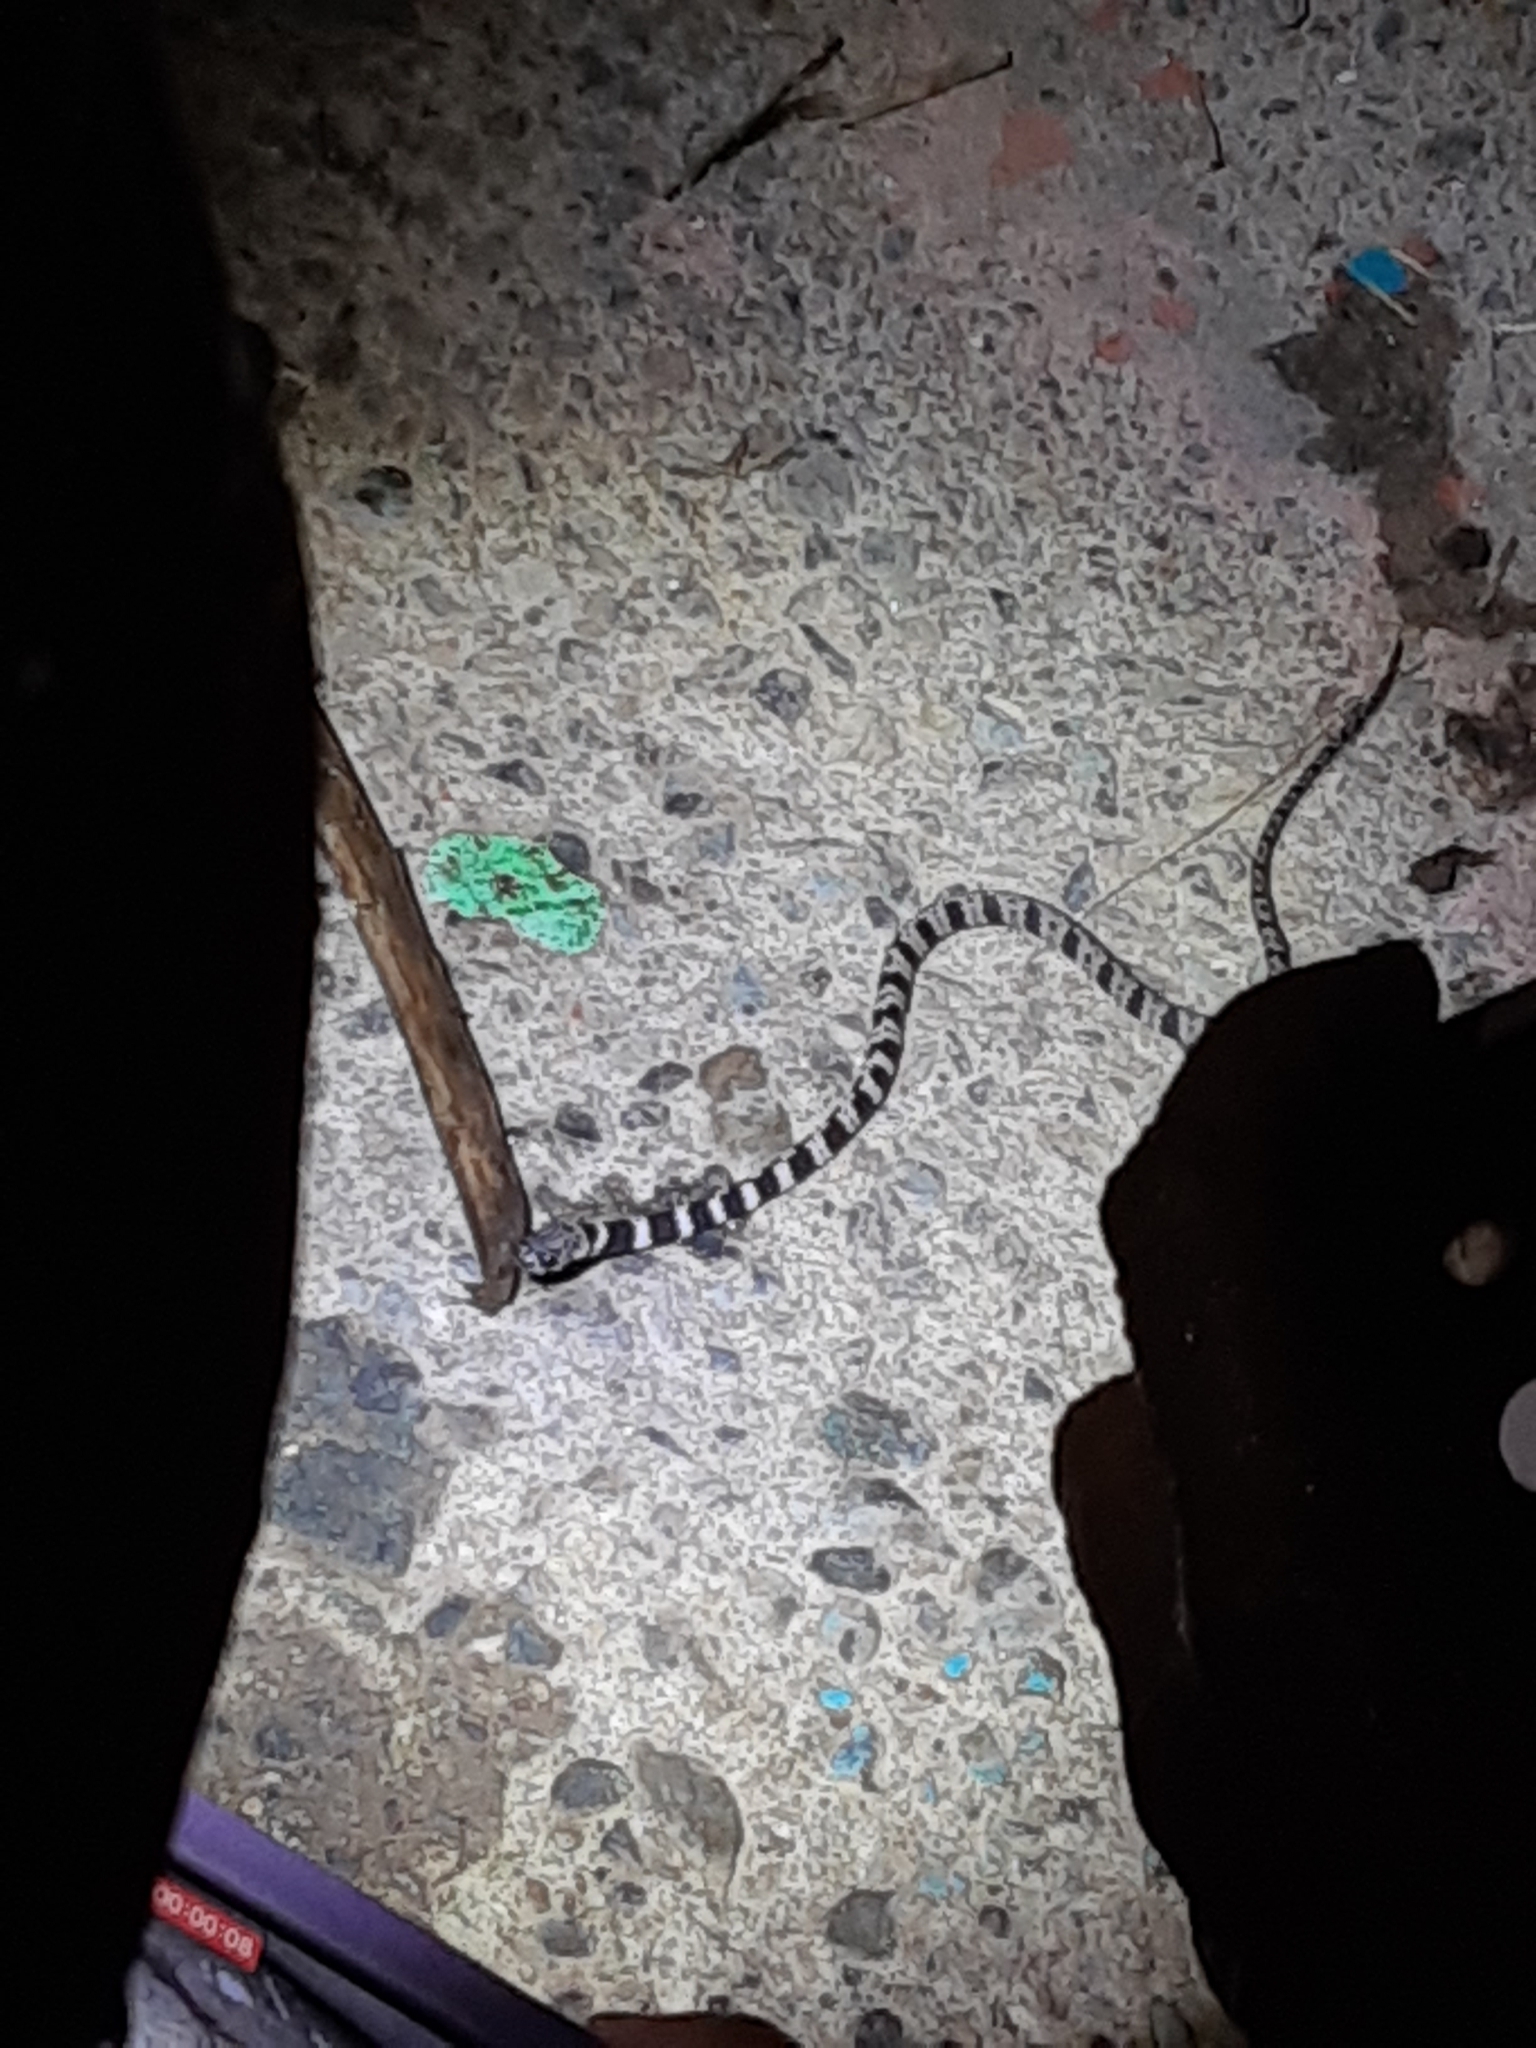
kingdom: Animalia
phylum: Chordata
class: Squamata
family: Colubridae
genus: Dipsas
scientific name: Dipsas sanctijoannis
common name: Tropical snail-eater
